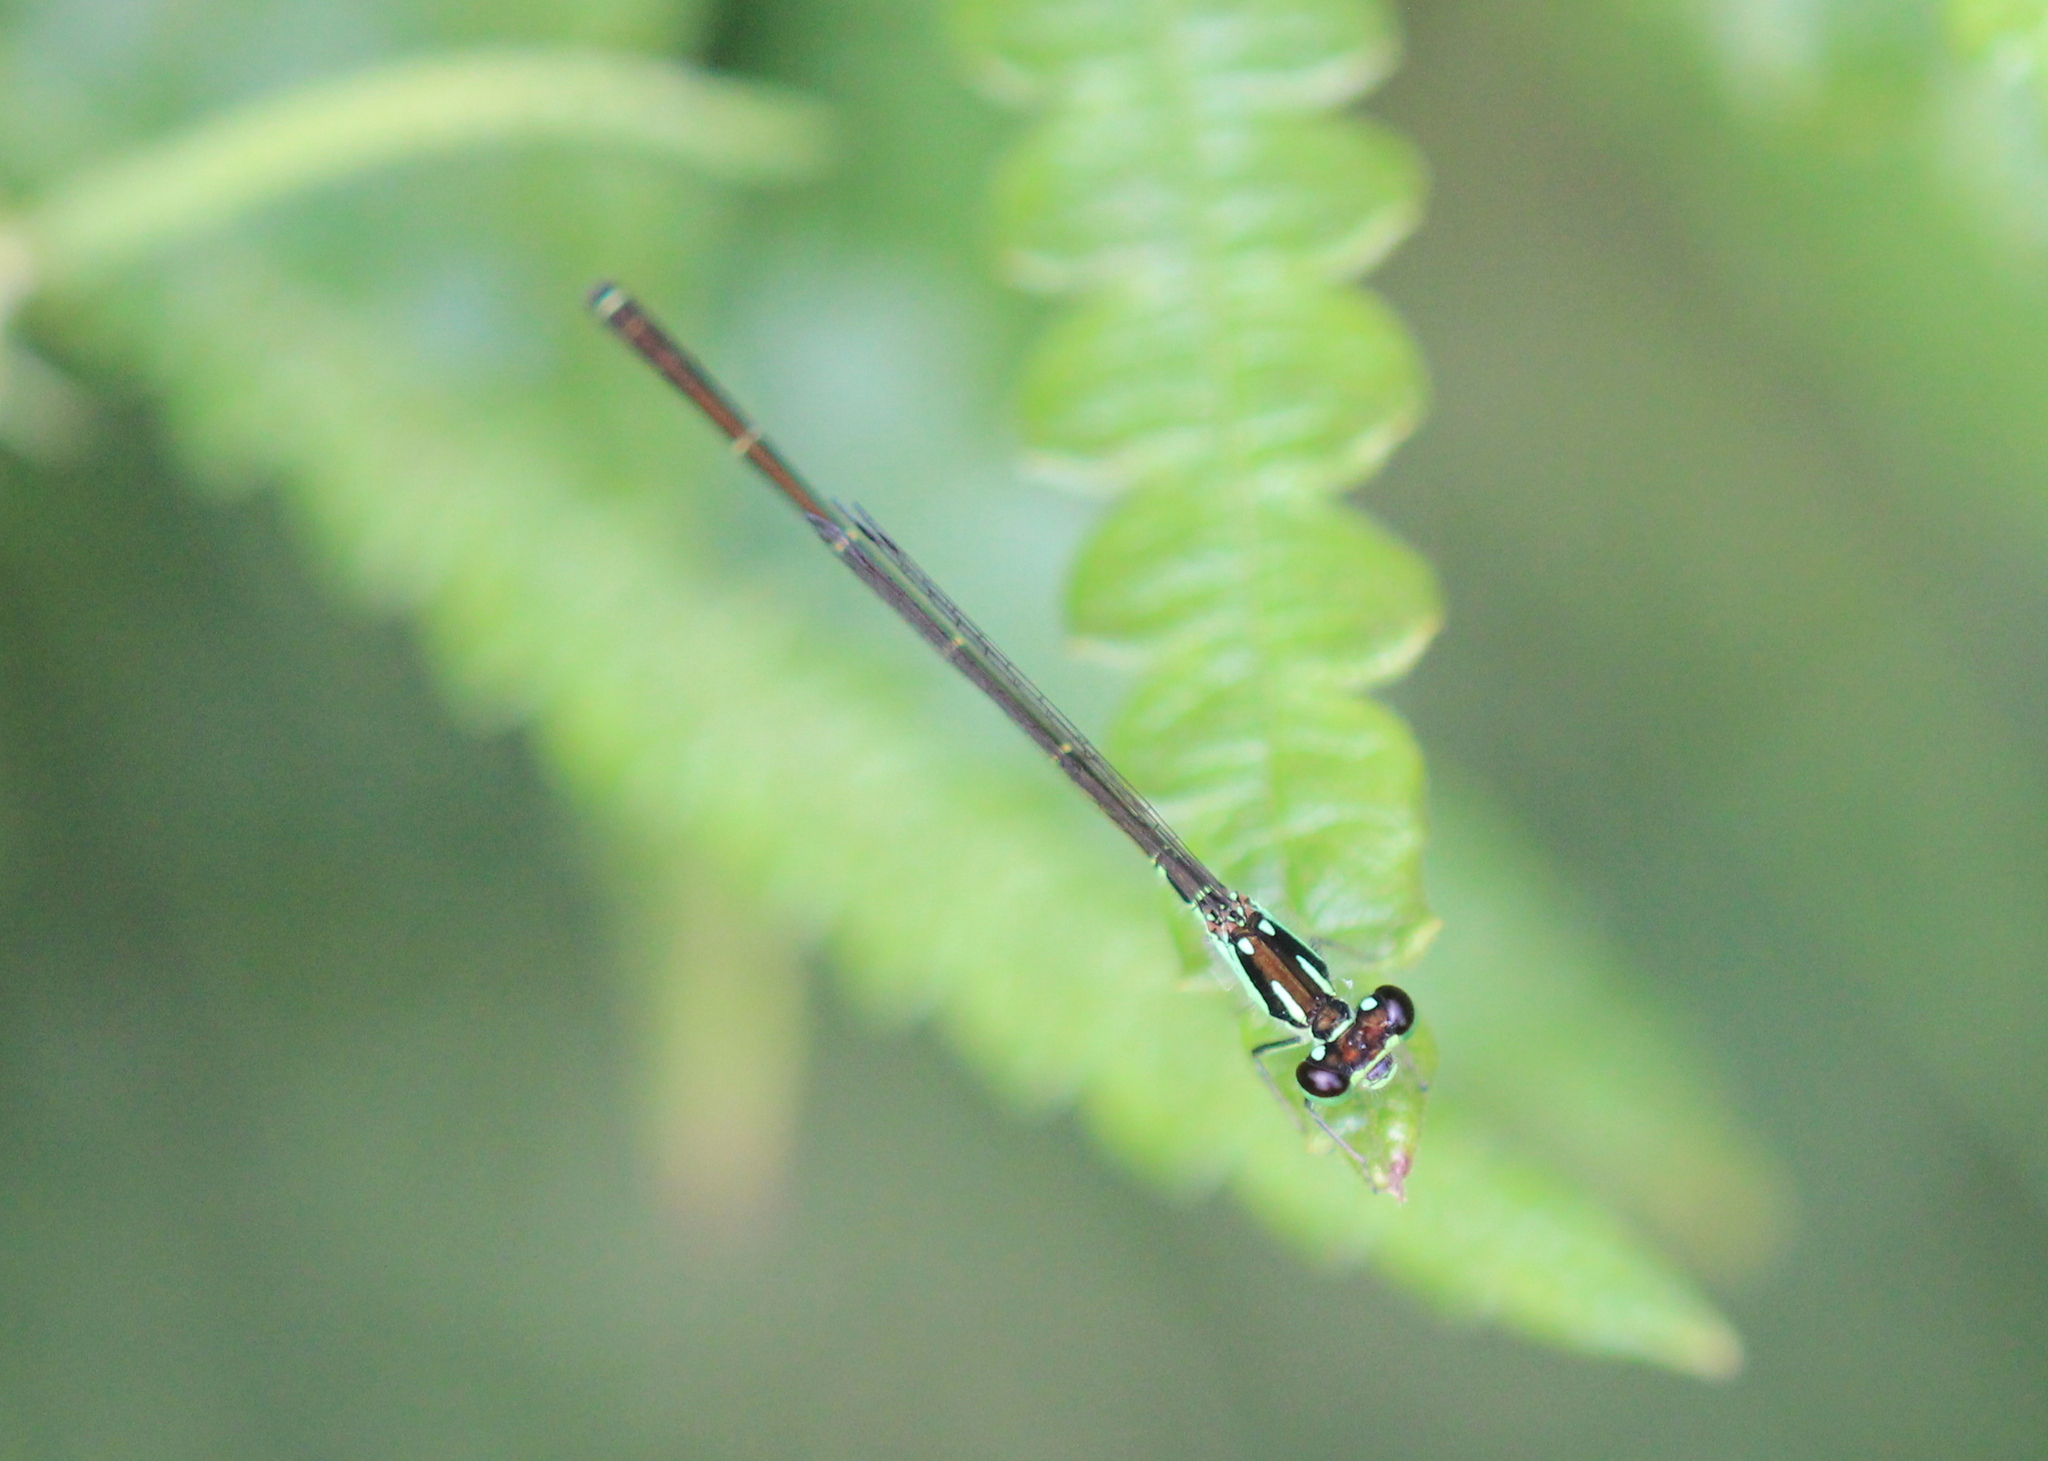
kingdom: Animalia
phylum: Arthropoda
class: Insecta
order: Odonata
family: Coenagrionidae
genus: Ischnura
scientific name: Ischnura posita
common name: Fragile forktail
